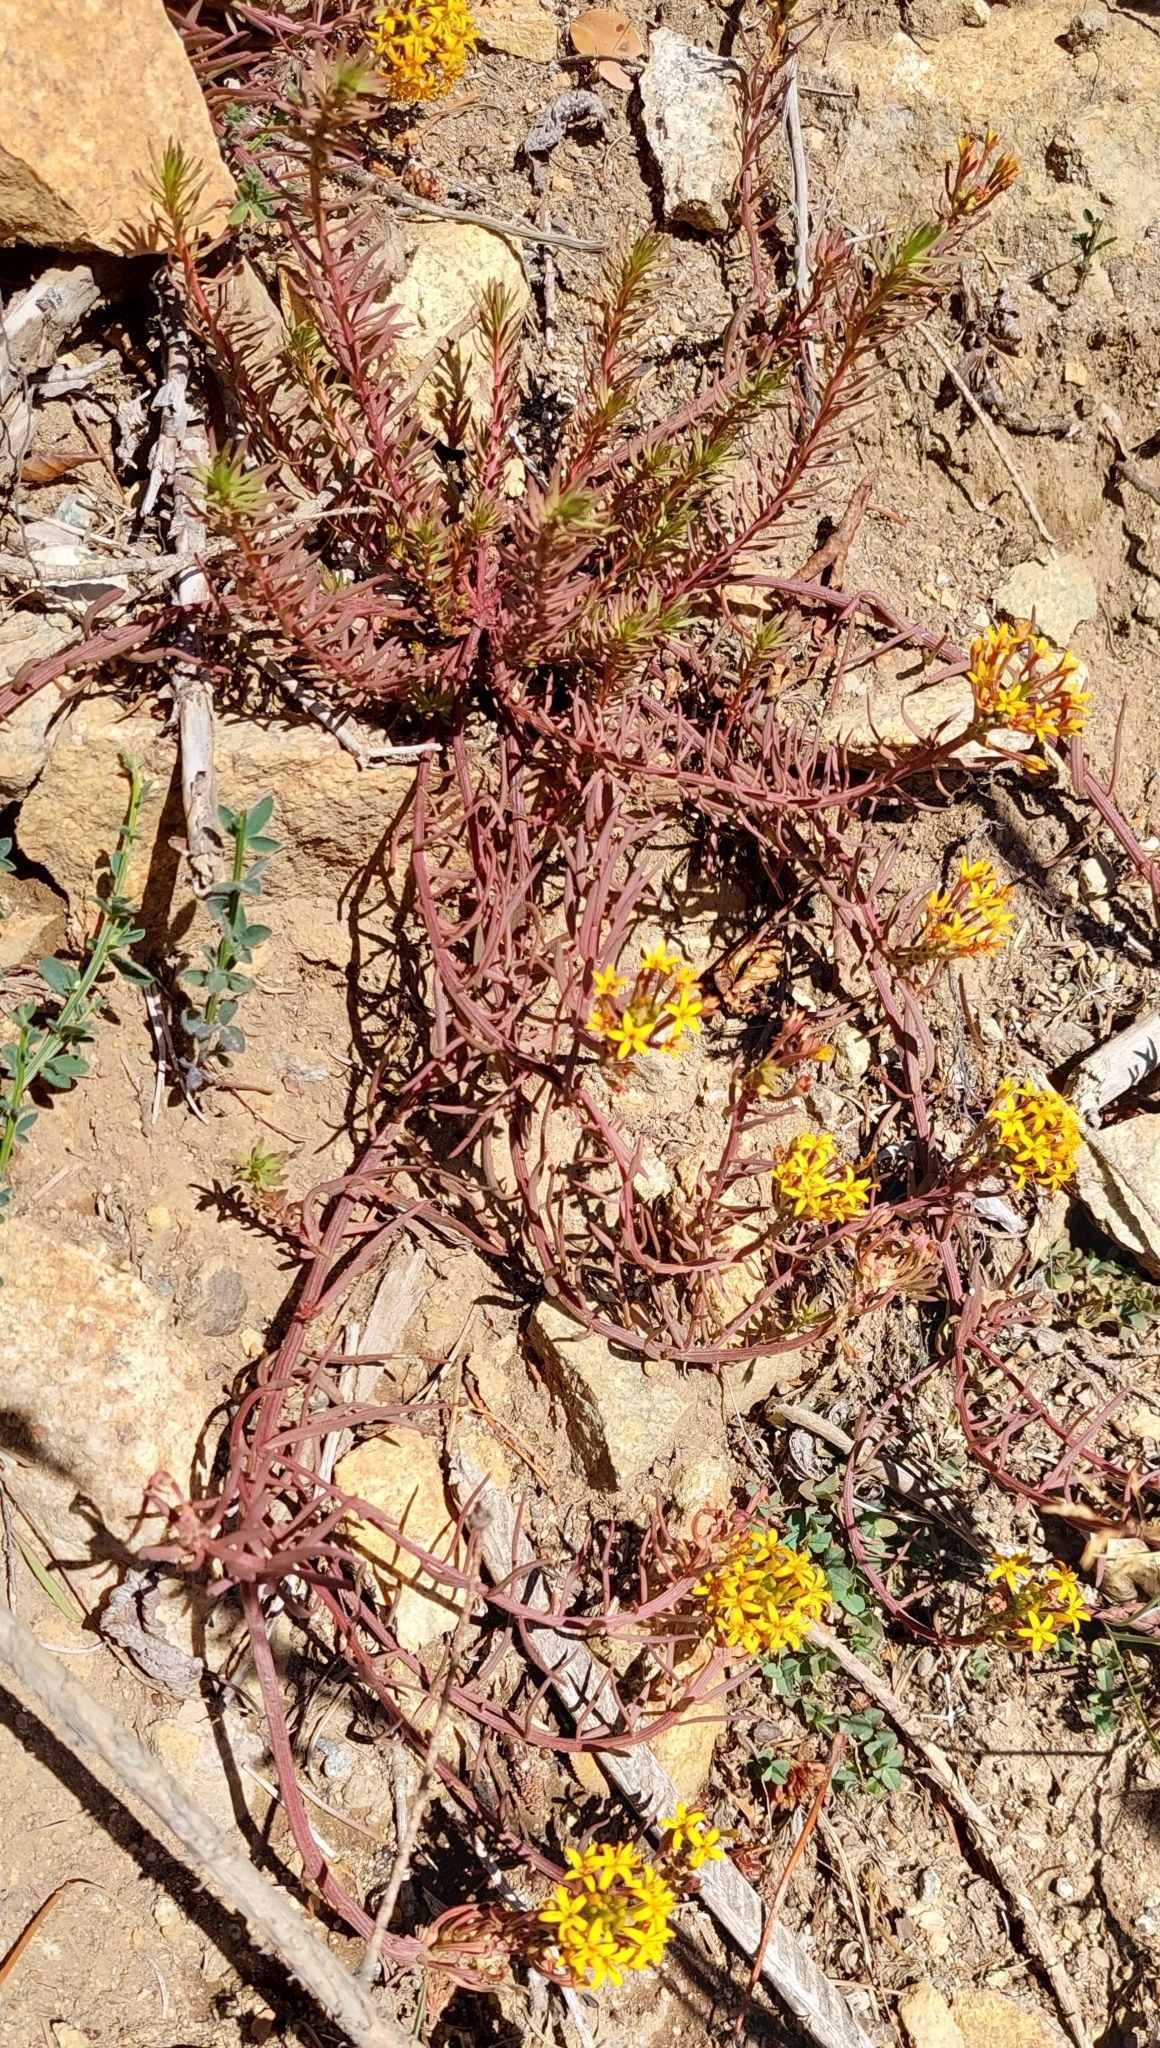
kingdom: Plantae
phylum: Tracheophyta
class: Magnoliopsida
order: Santalales
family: Schoepfiaceae
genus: Quinchamalium
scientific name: Quinchamalium chilense
